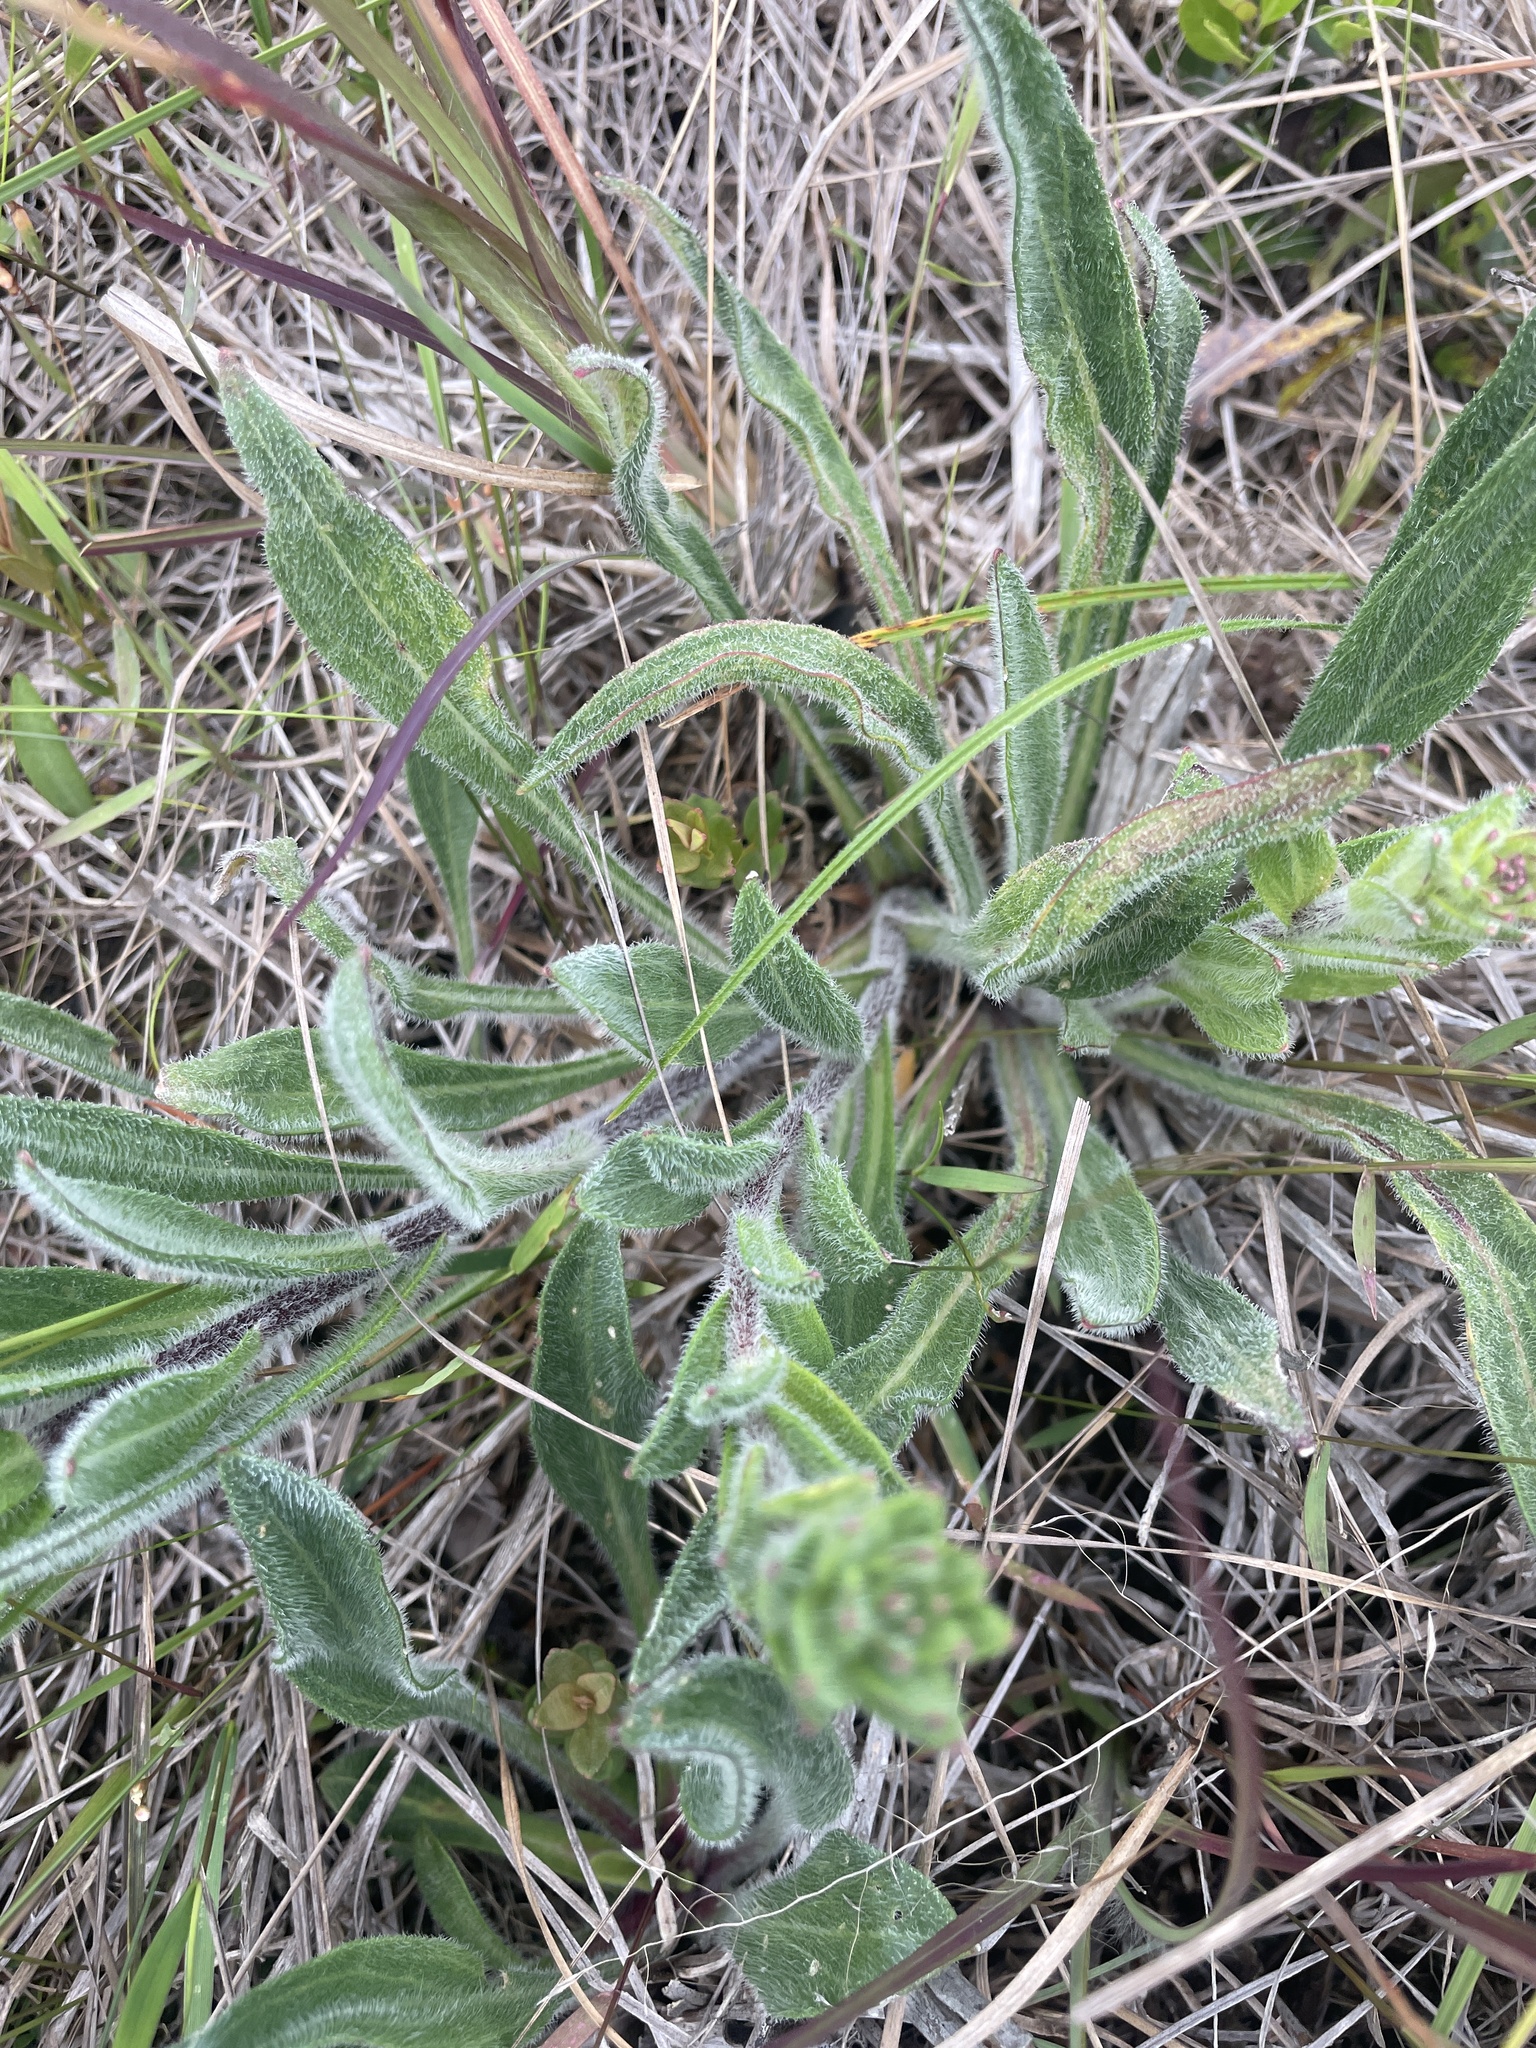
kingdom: Plantae
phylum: Tracheophyta
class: Magnoliopsida
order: Asterales
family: Asteraceae
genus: Carphephorus
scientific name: Carphephorus tomentosus
